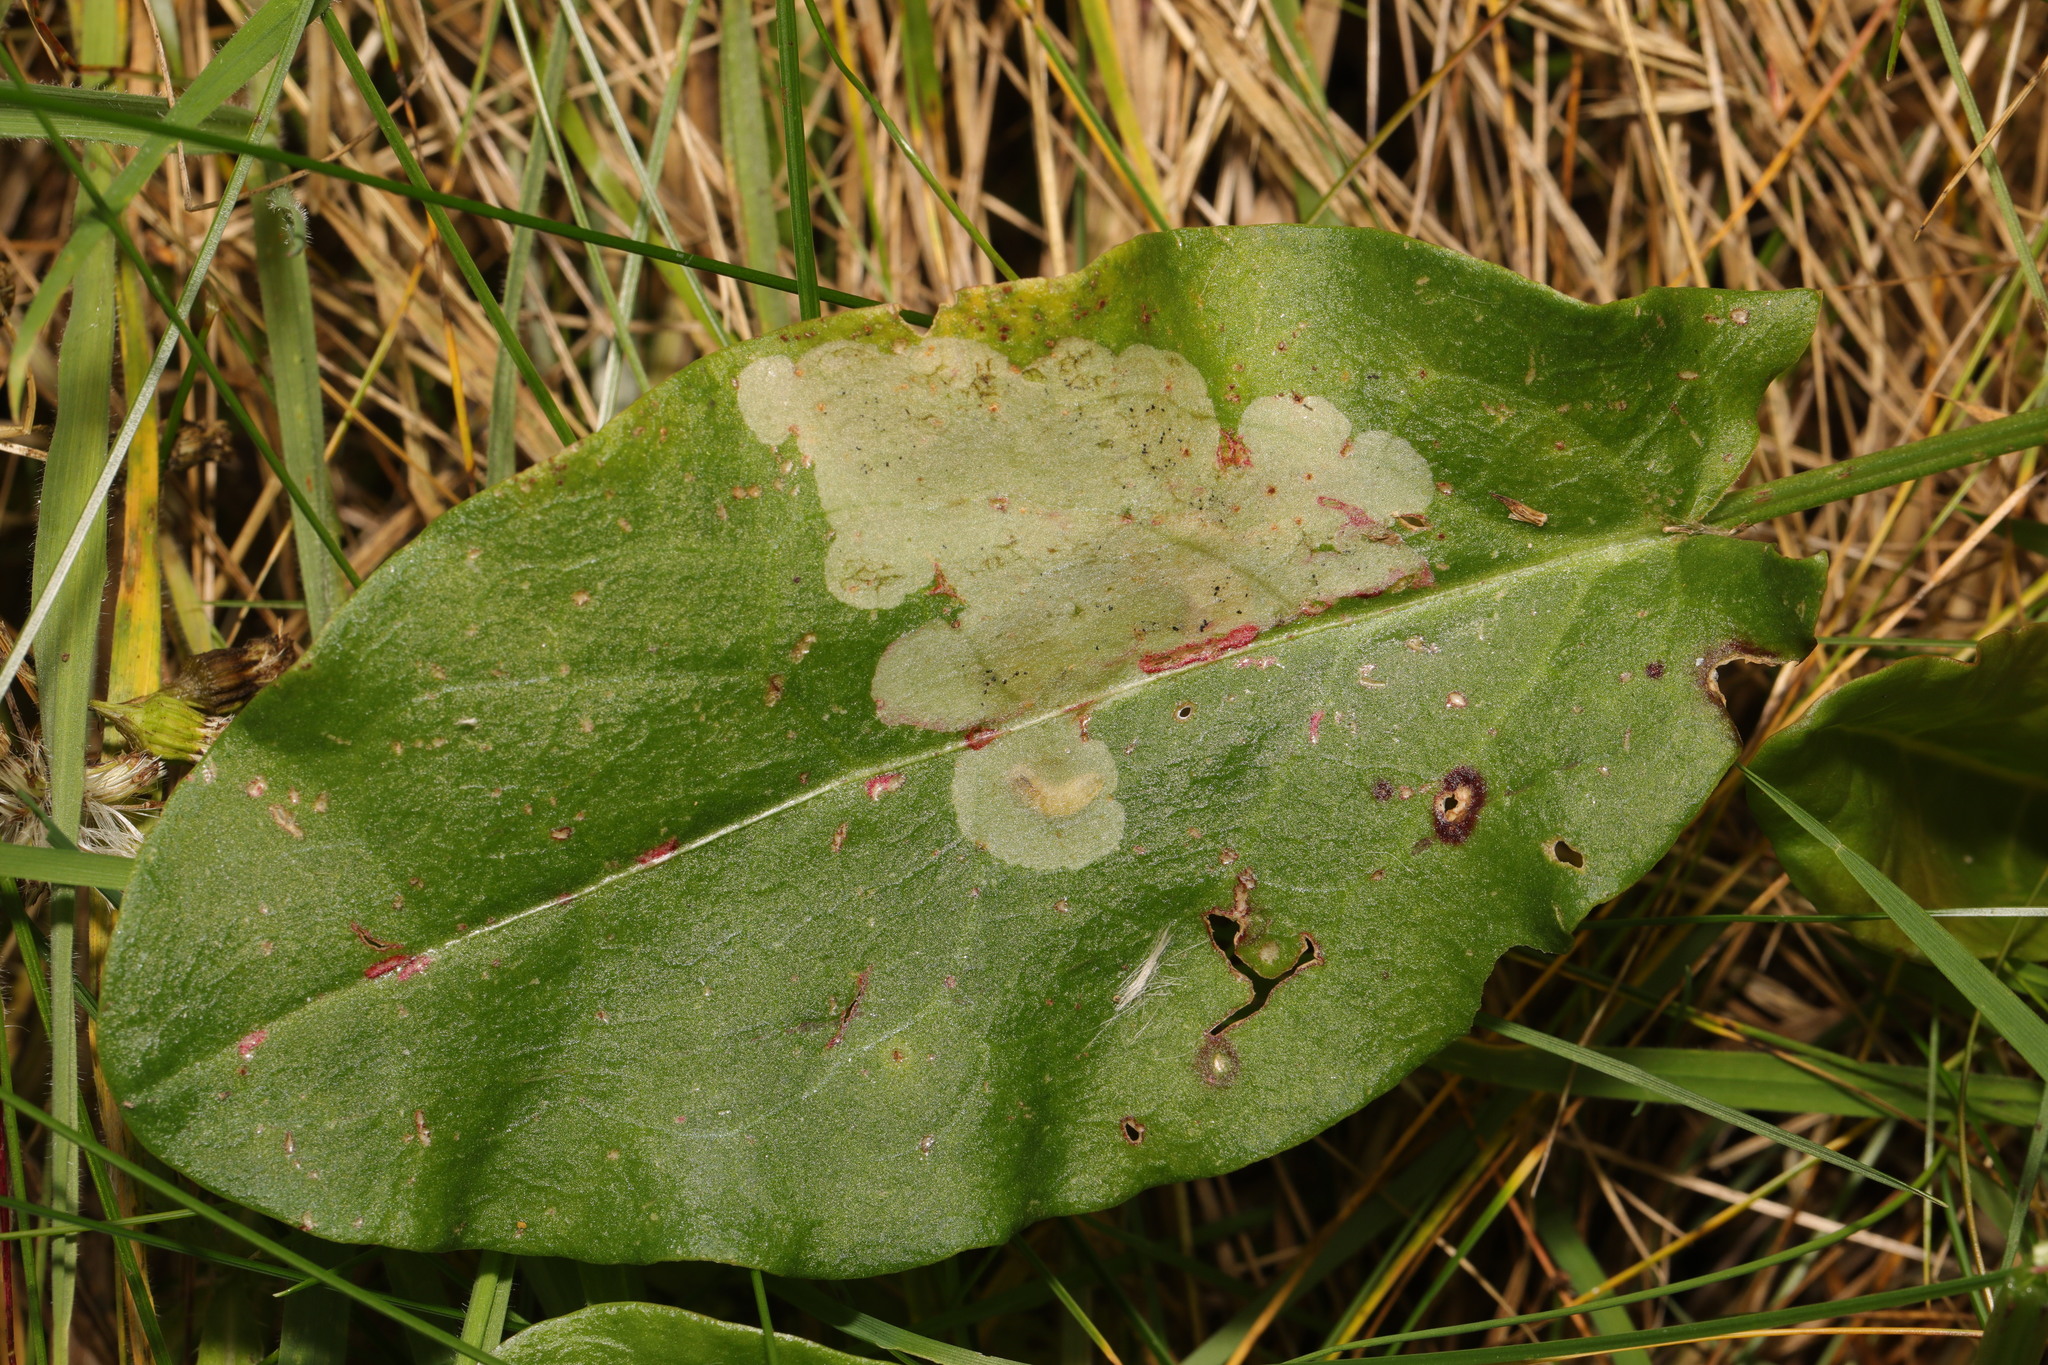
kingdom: Plantae
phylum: Tracheophyta
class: Magnoliopsida
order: Caryophyllales
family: Polygonaceae
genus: Rumex
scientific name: Rumex acetosa
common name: Garden sorrel
